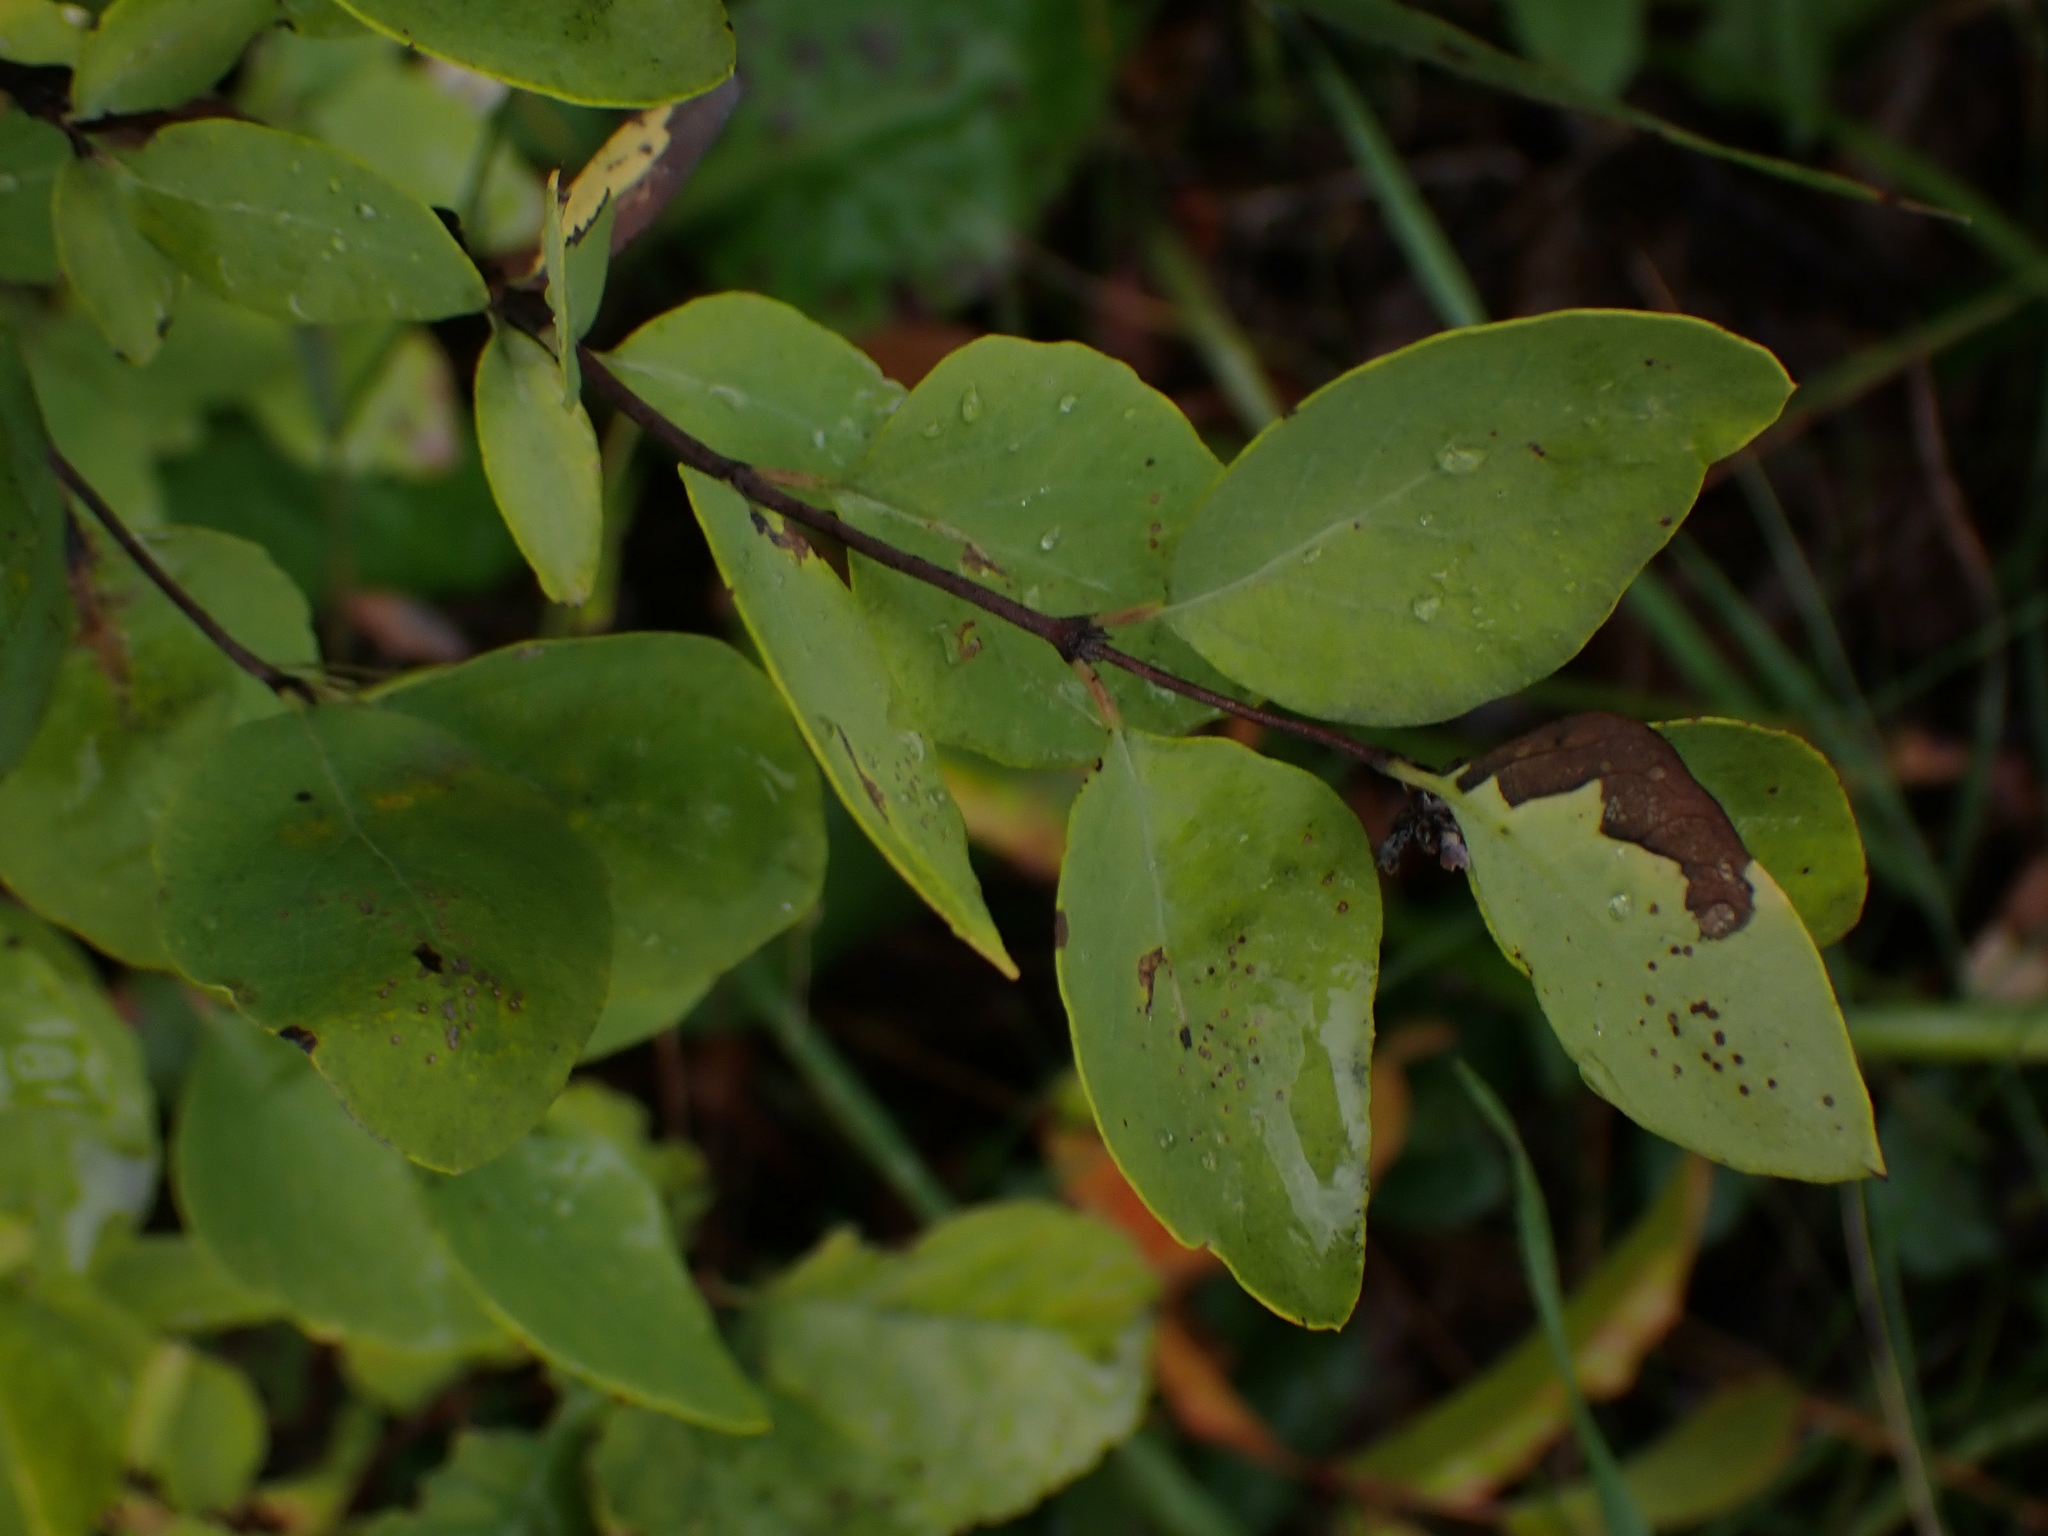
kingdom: Plantae
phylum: Tracheophyta
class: Magnoliopsida
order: Dipsacales
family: Caprifoliaceae
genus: Symphoricarpos
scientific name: Symphoricarpos occidentalis
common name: Wolfberry
